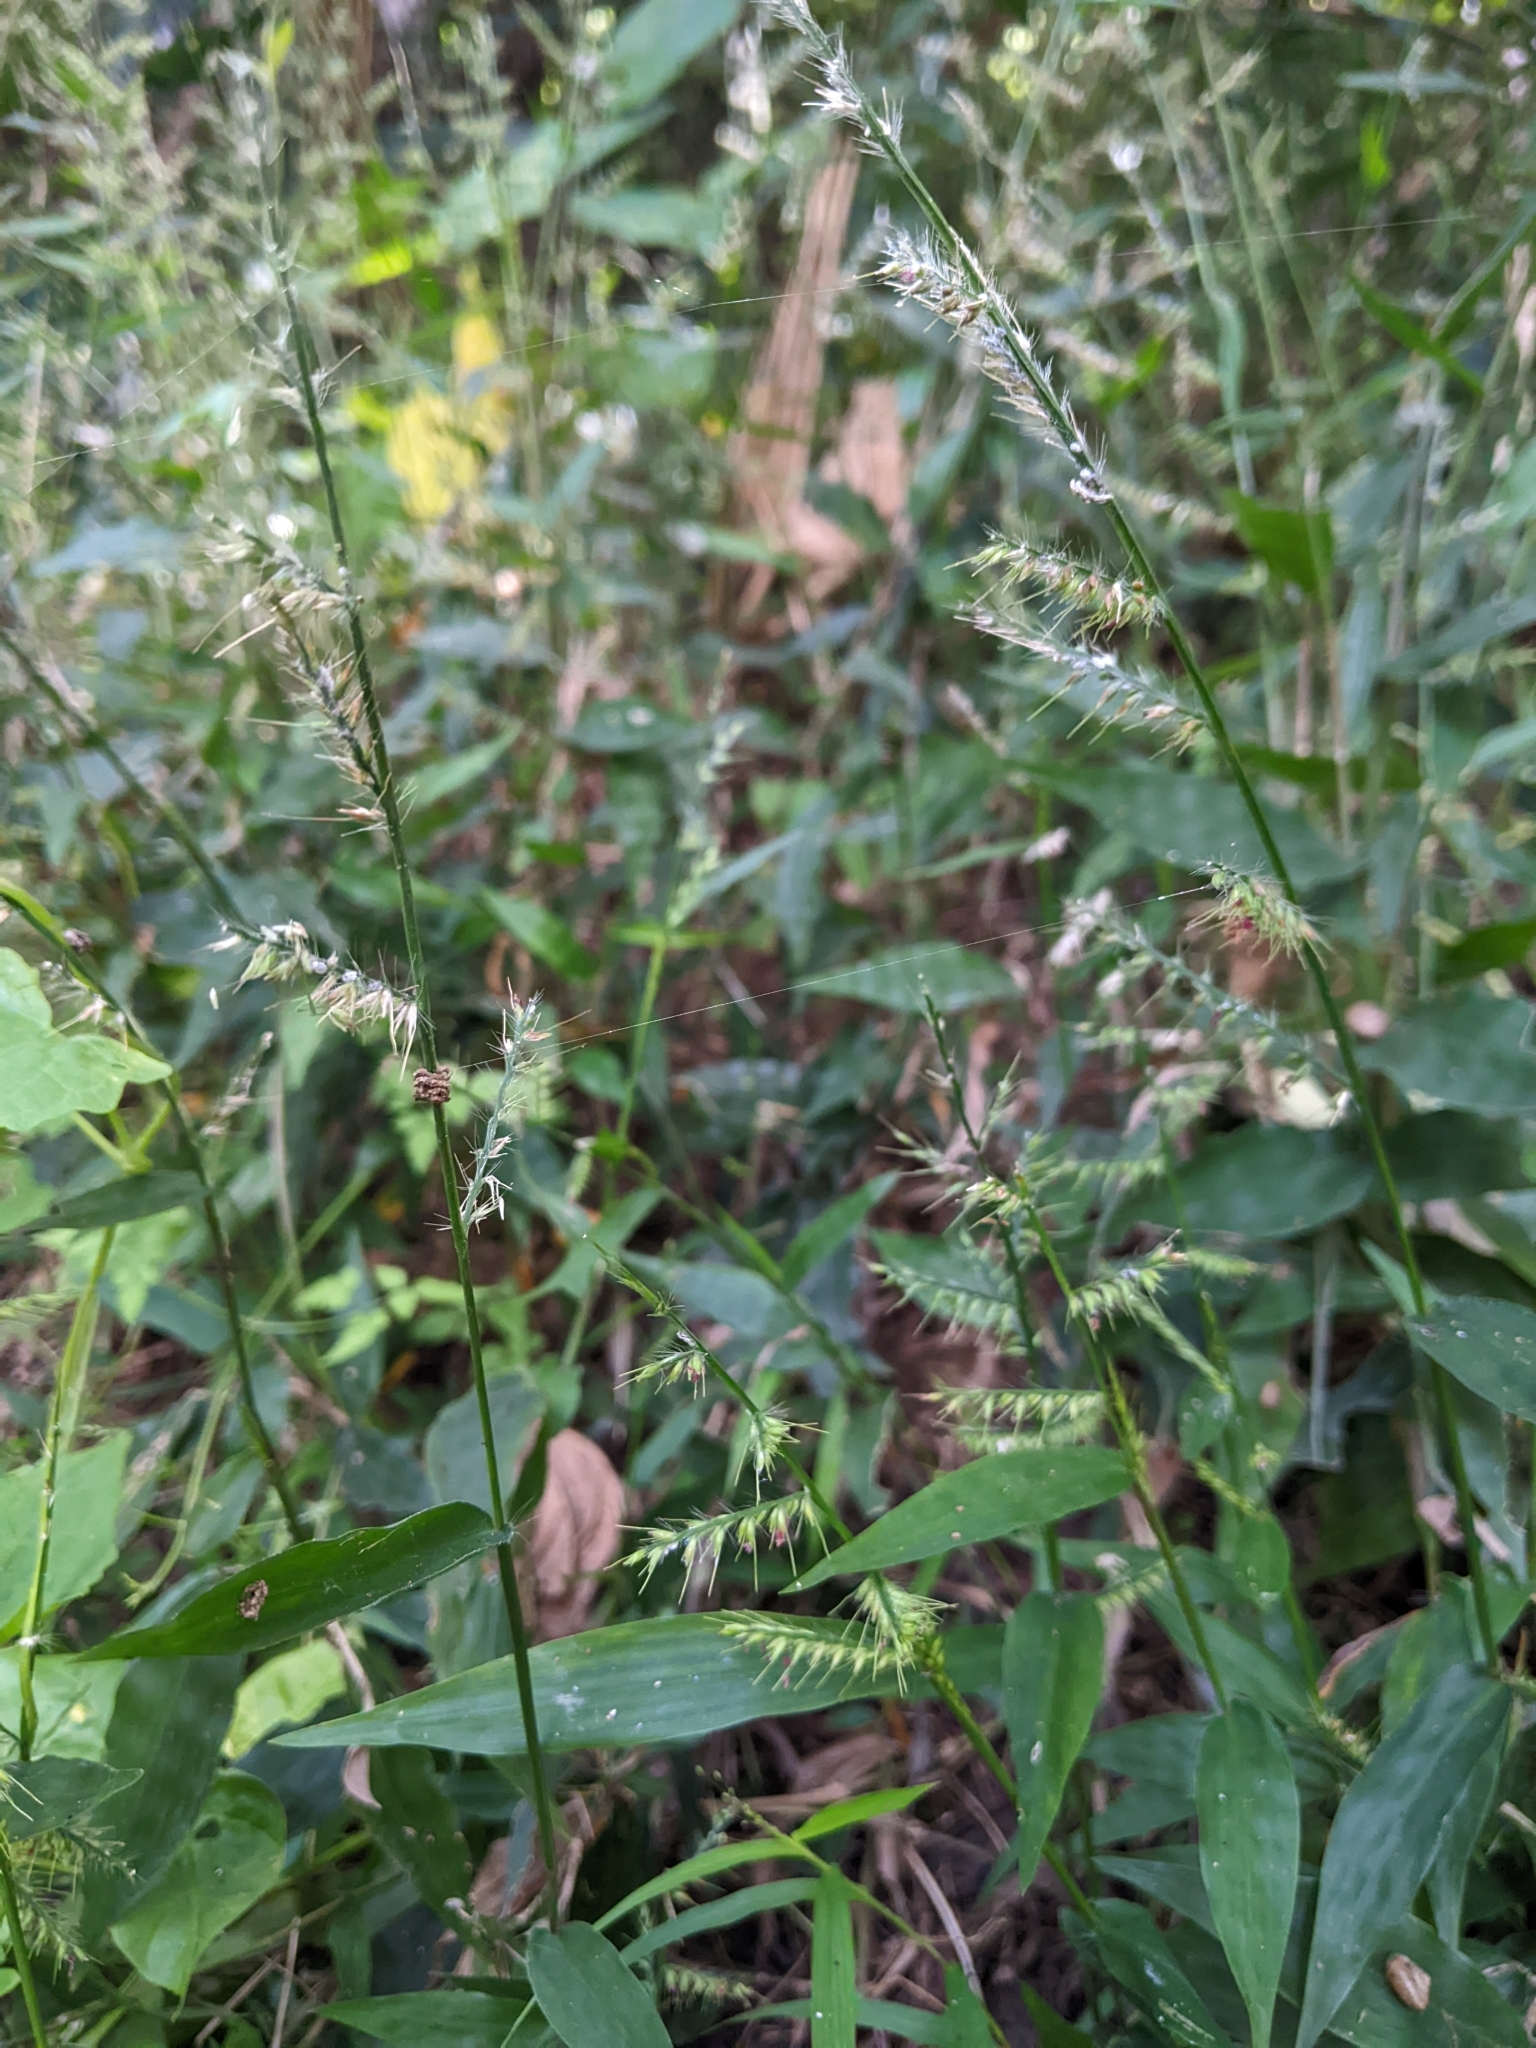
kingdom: Plantae
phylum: Tracheophyta
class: Liliopsida
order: Poales
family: Poaceae
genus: Oplismenus
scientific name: Oplismenus compositus
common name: Running mountain grass
